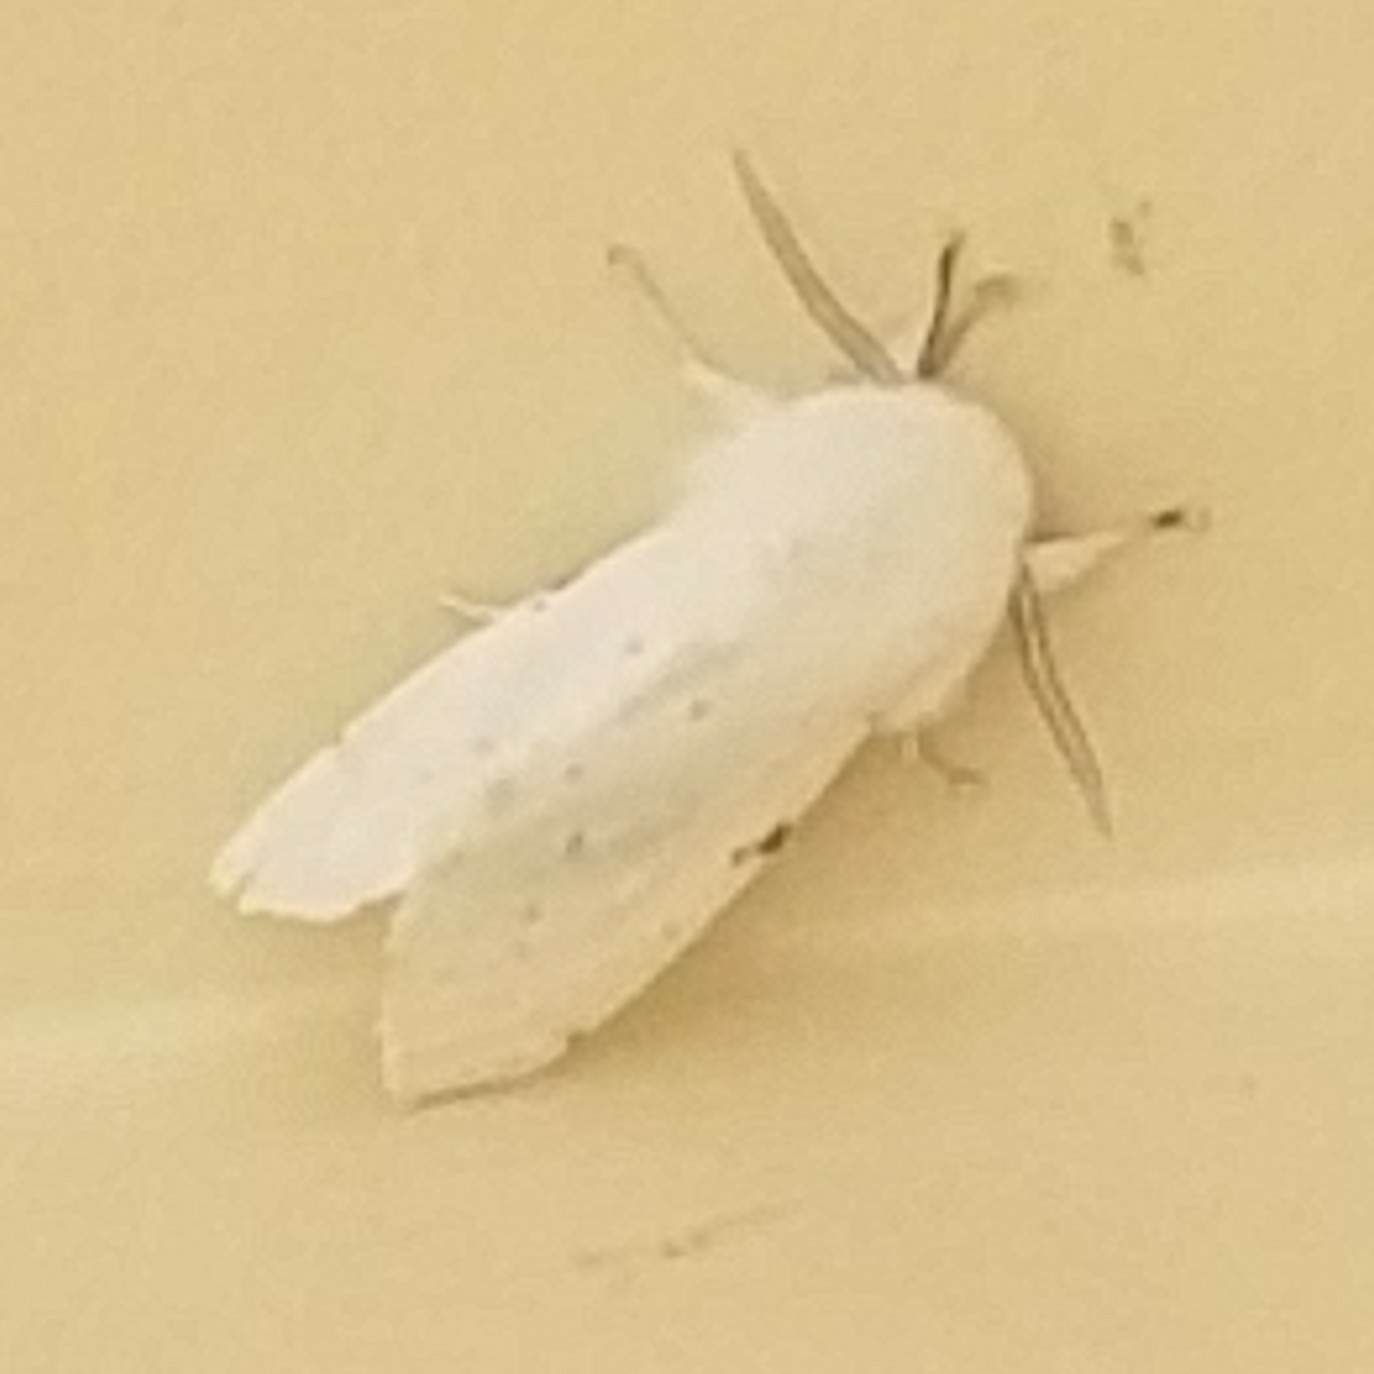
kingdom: Animalia
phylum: Arthropoda
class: Insecta
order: Lepidoptera
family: Erebidae
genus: Spilosoma
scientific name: Spilosoma vestalis
